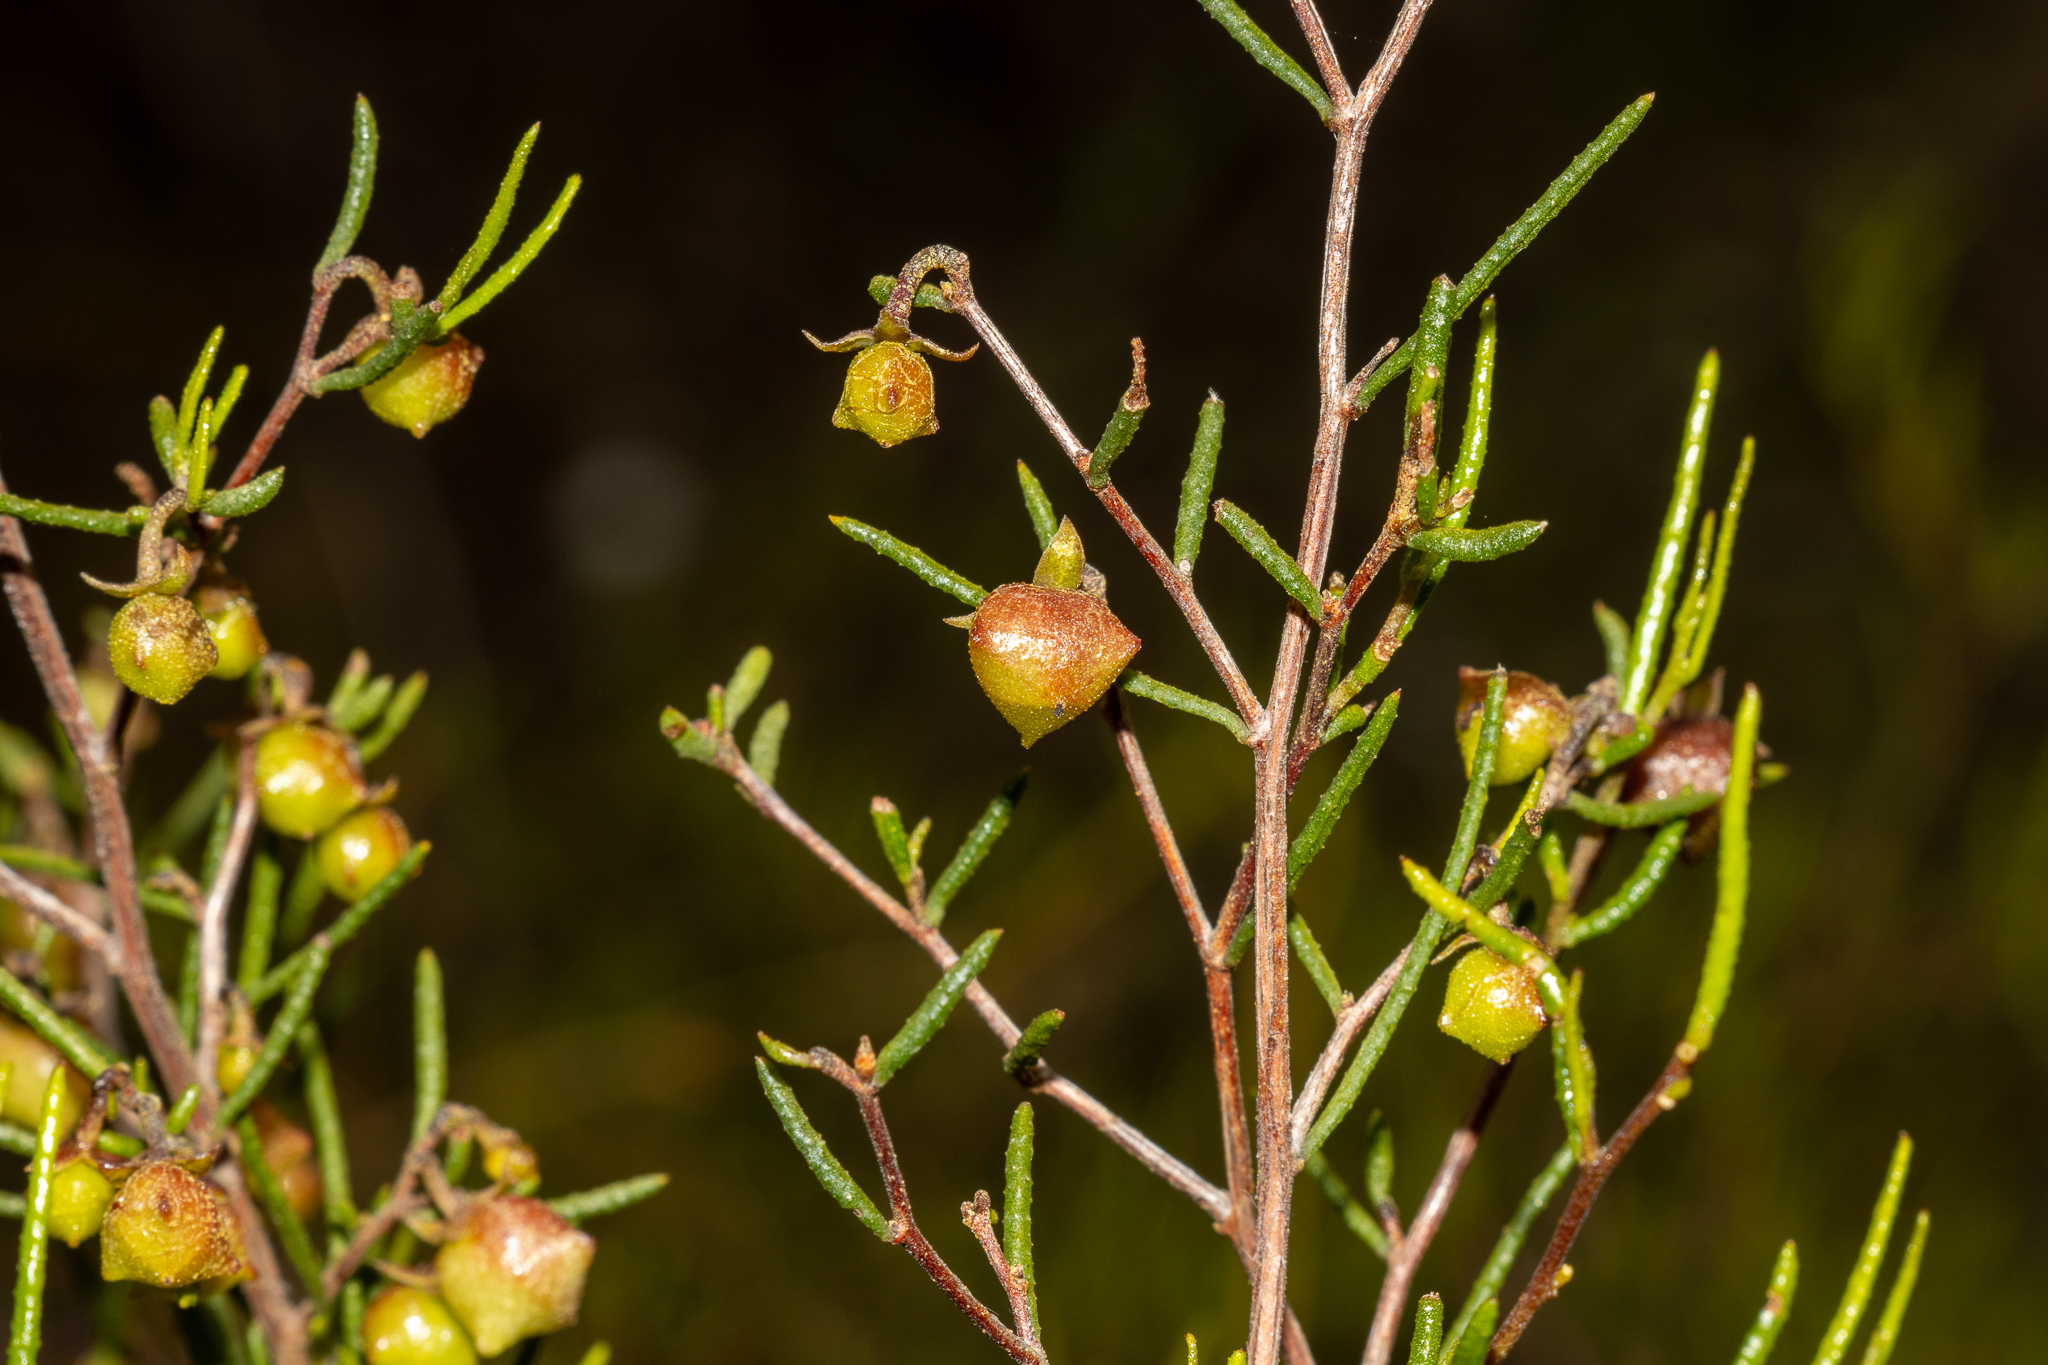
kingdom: Plantae
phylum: Tracheophyta
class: Magnoliopsida
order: Sapindales
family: Sapindaceae
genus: Dodonaea
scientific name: Dodonaea hexandra
